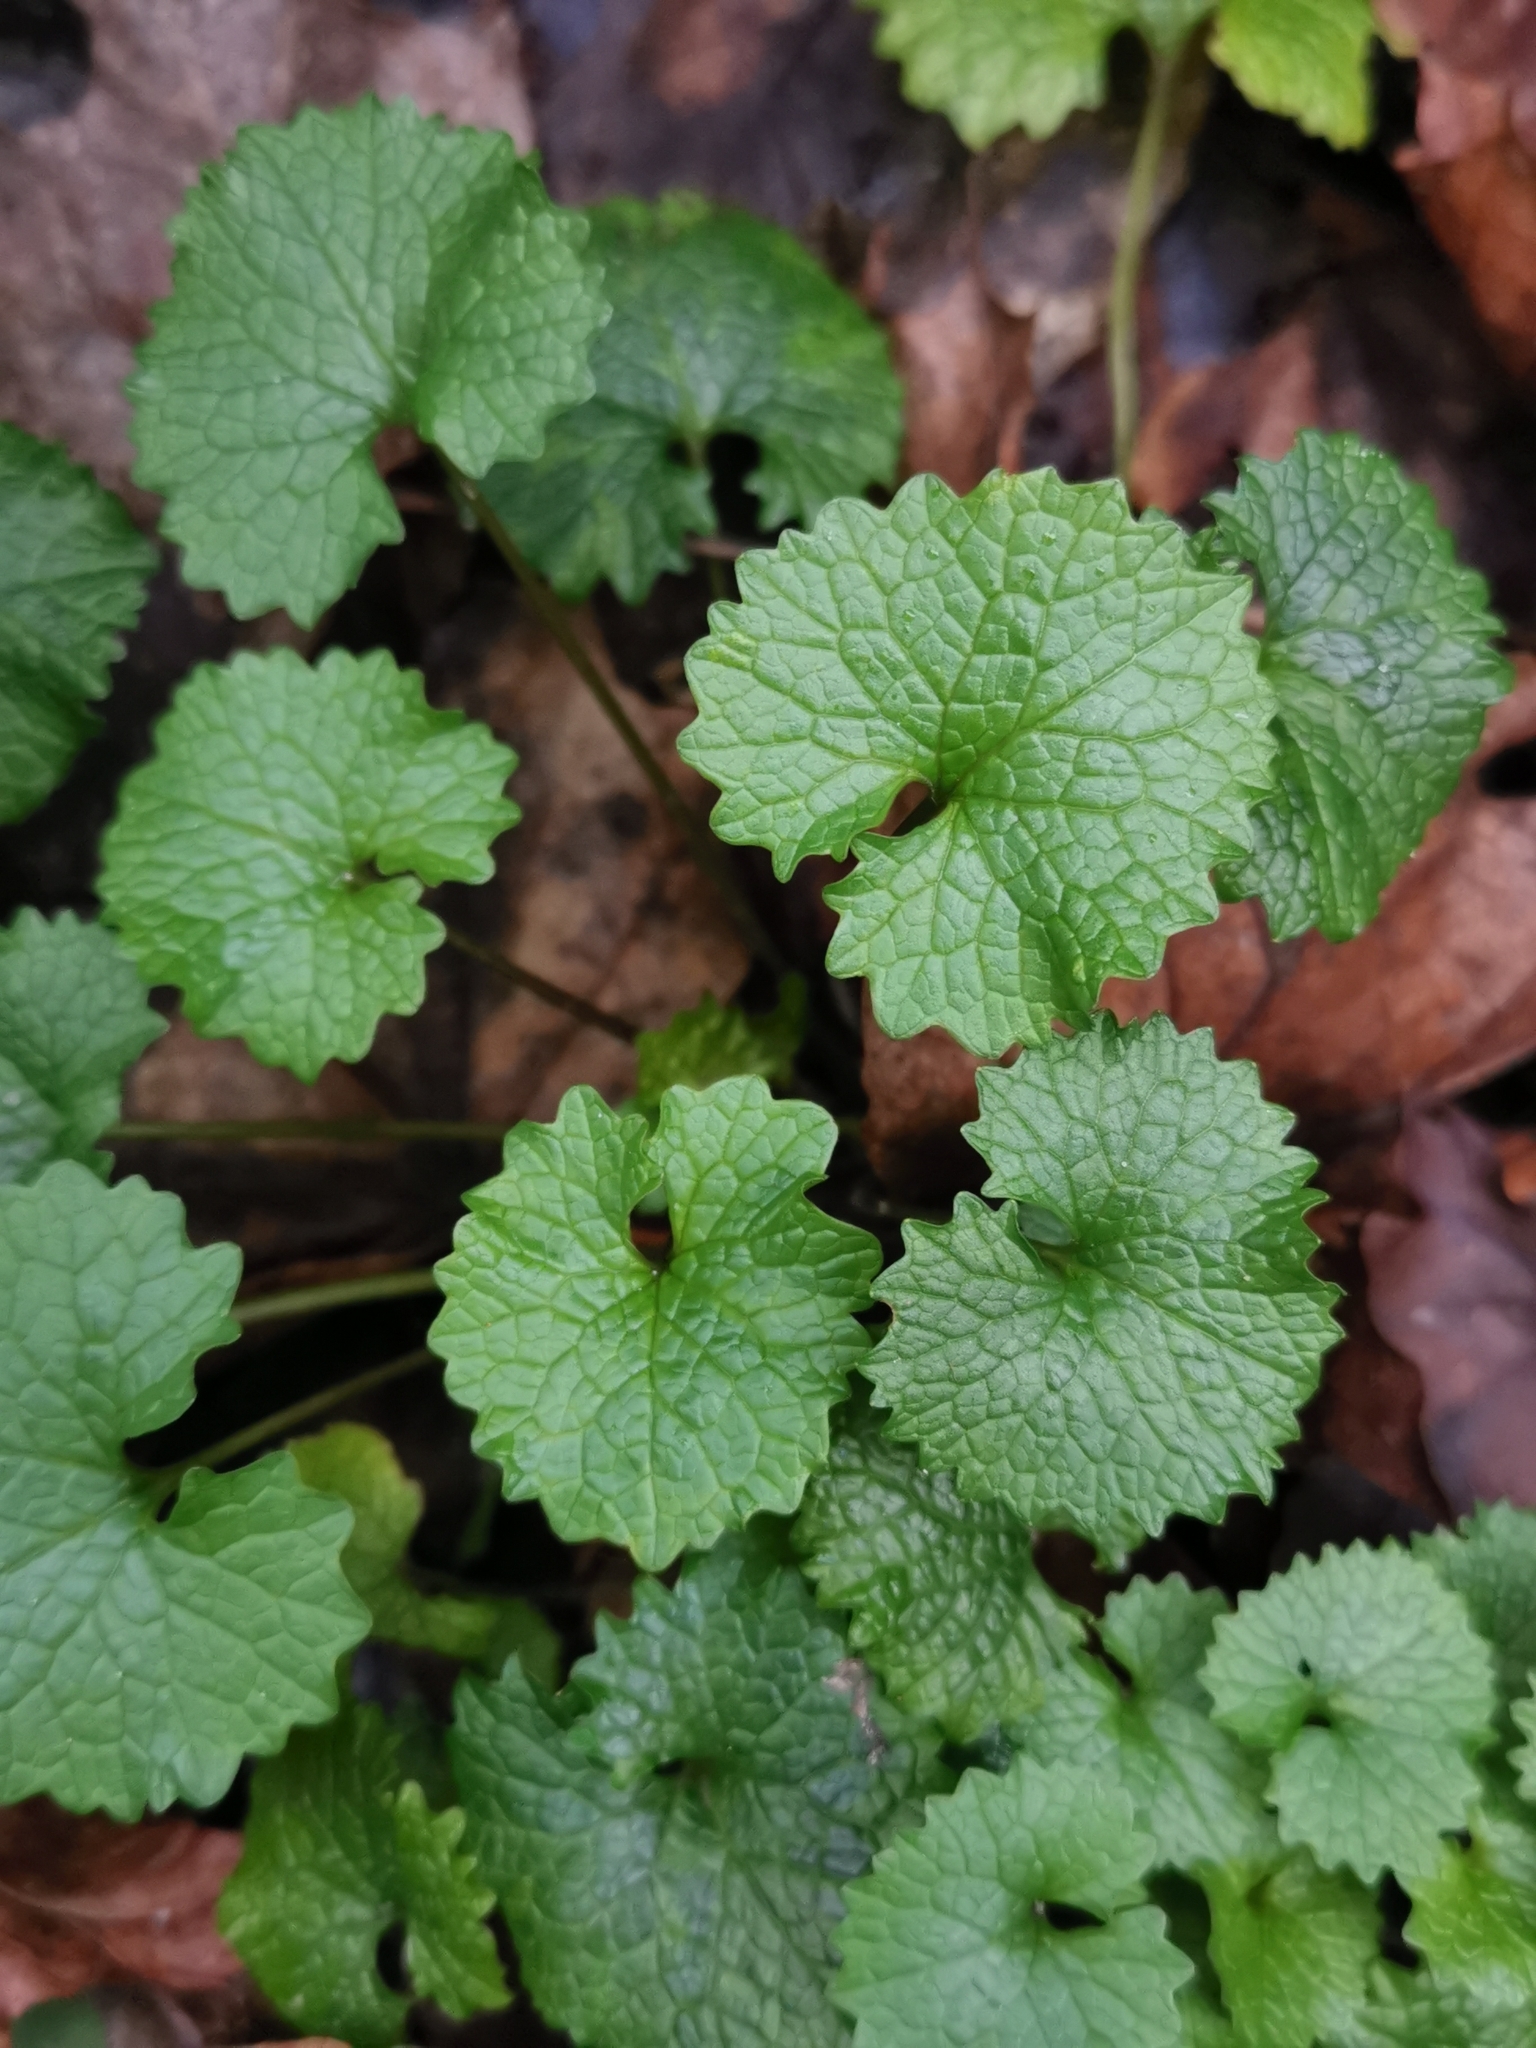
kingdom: Plantae
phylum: Tracheophyta
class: Magnoliopsida
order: Brassicales
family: Brassicaceae
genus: Alliaria
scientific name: Alliaria petiolata
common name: Garlic mustard
